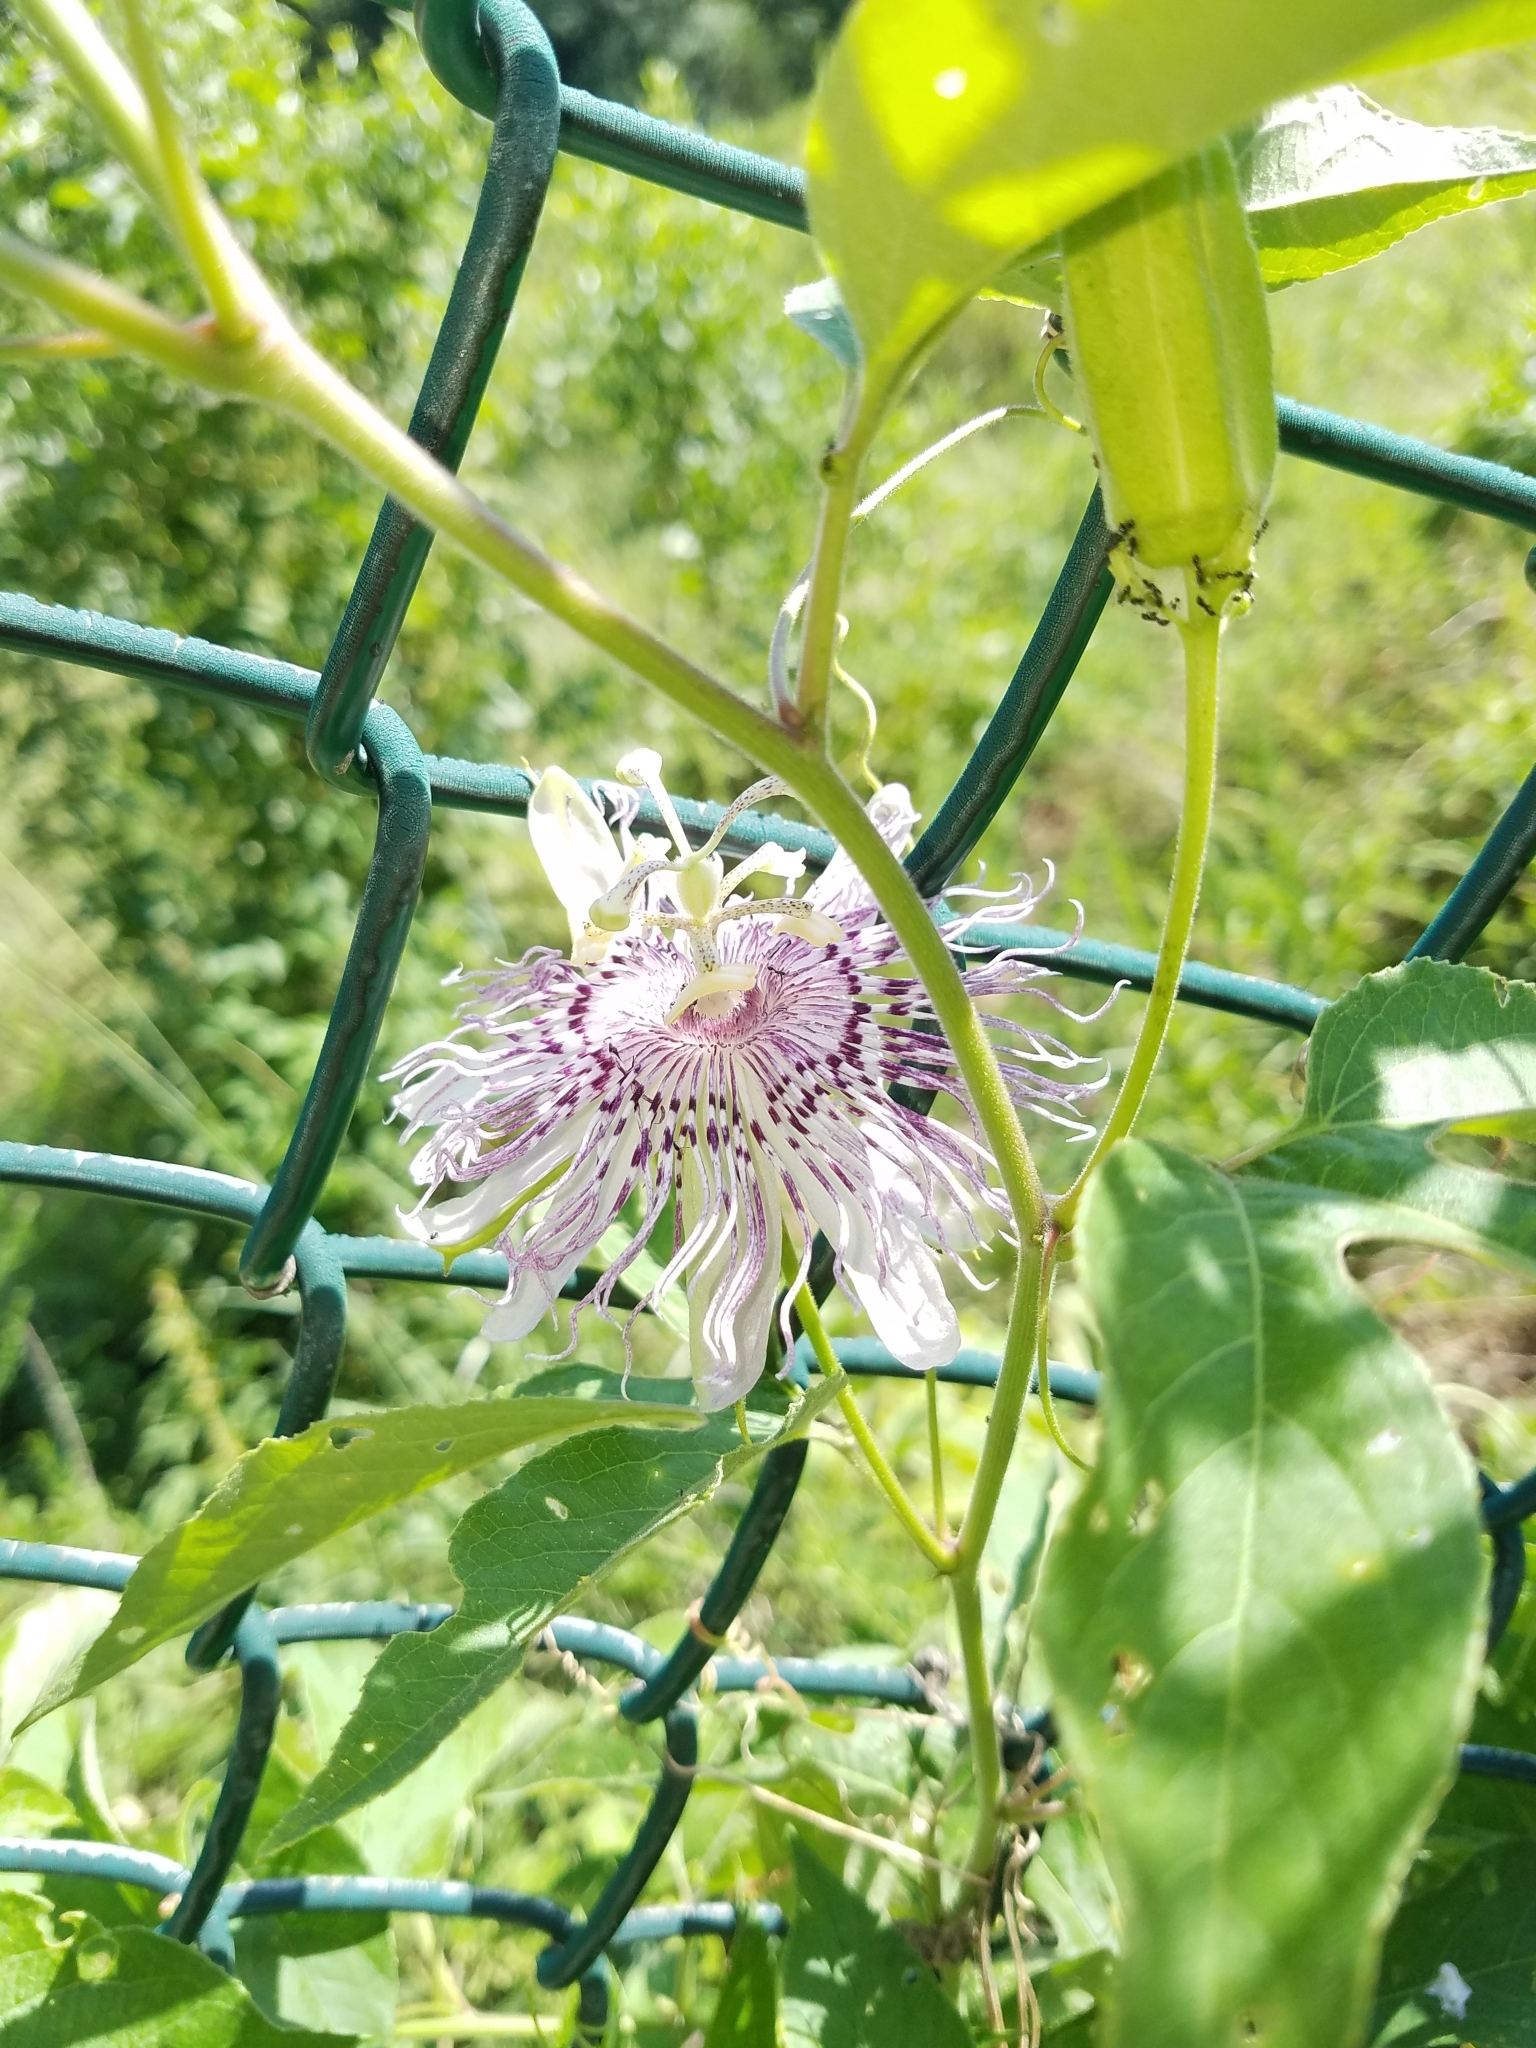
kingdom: Plantae
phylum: Tracheophyta
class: Magnoliopsida
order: Malpighiales
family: Passifloraceae
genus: Passiflora
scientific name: Passiflora incarnata
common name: Apricot-vine
